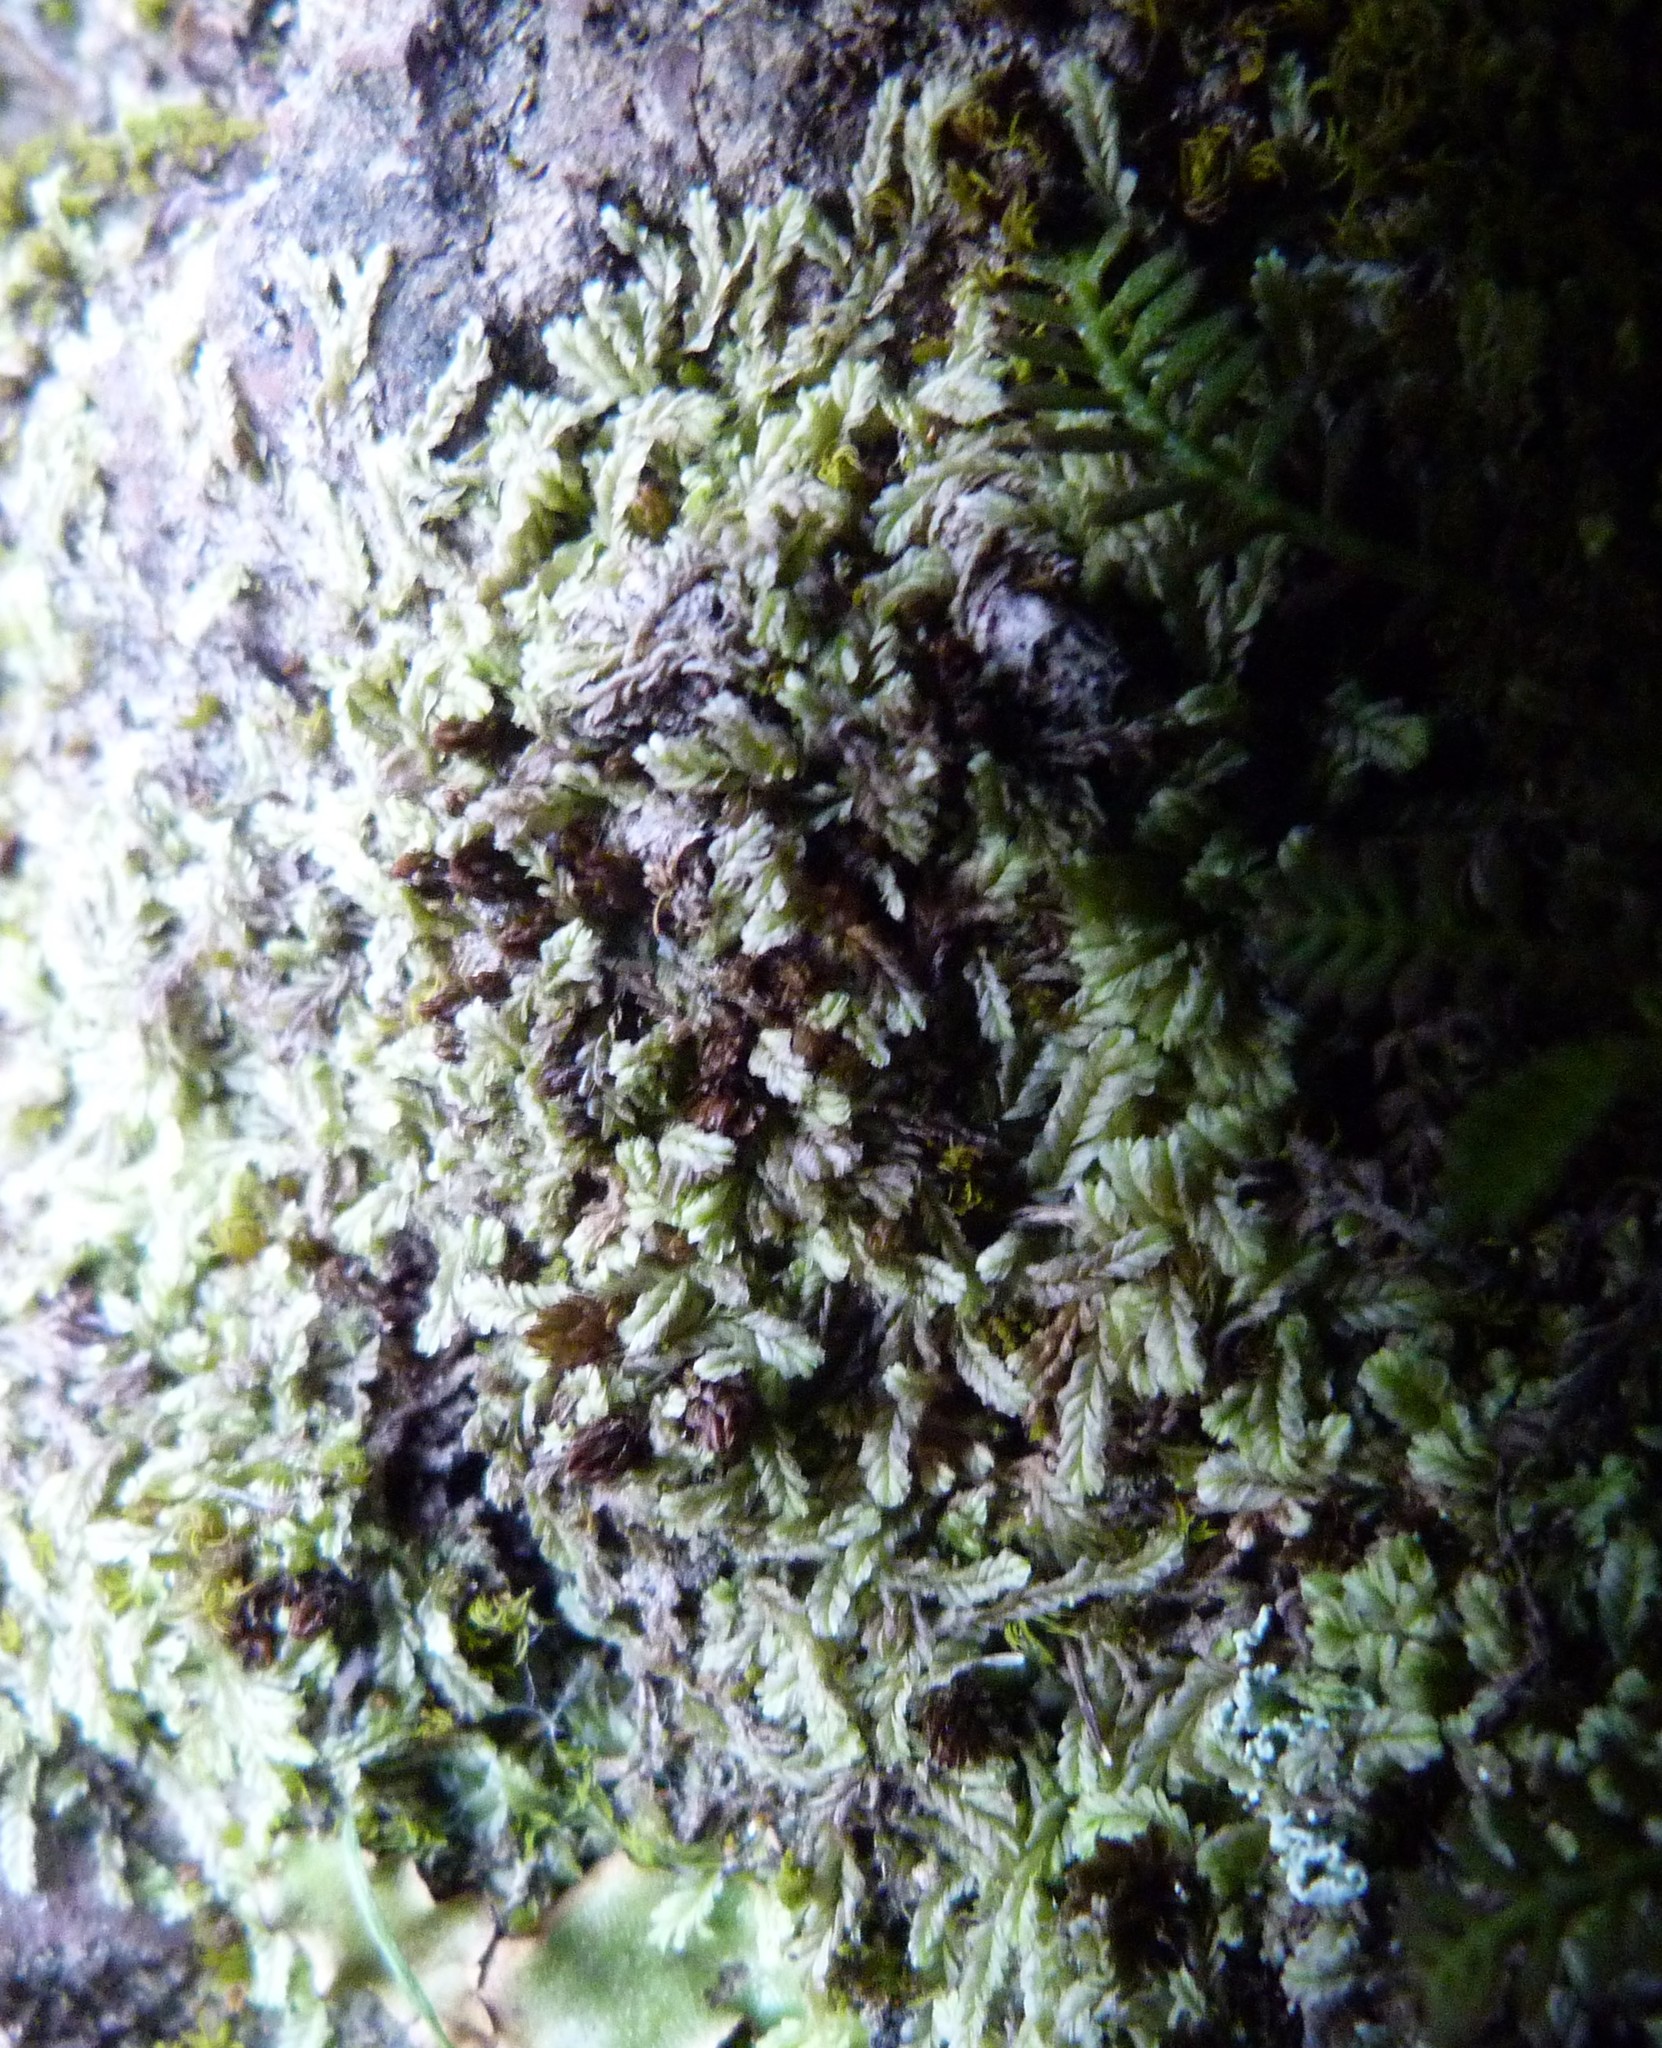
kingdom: Plantae
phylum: Marchantiophyta
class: Jungermanniopsida
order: Jungermanniales
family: Lophocoleaceae
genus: Lophocolea
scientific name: Lophocolea canaliculata
